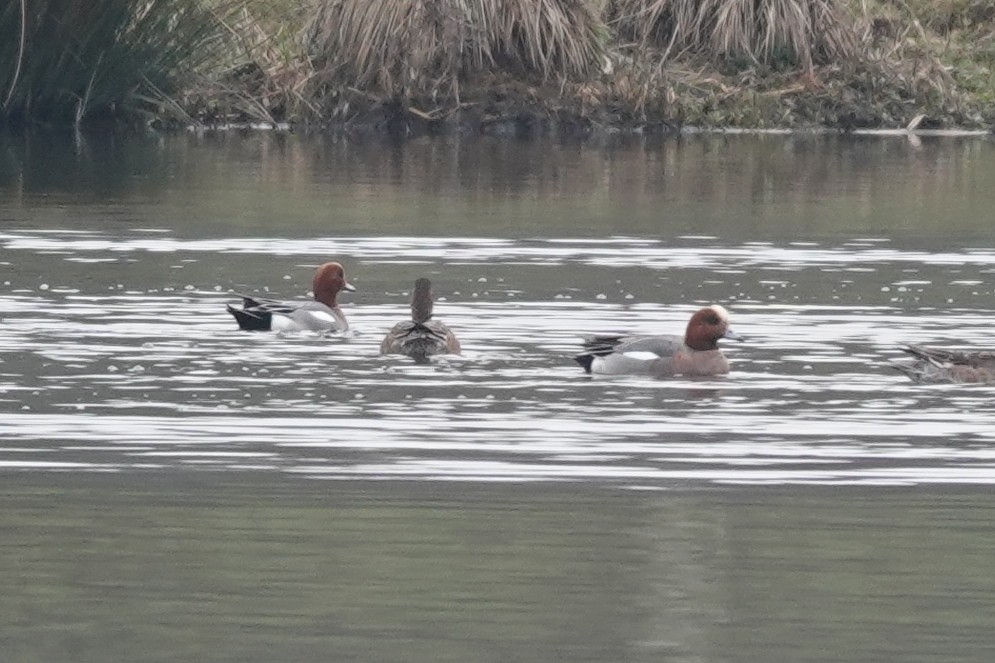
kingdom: Animalia
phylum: Chordata
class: Aves
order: Anseriformes
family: Anatidae
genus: Mareca
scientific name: Mareca penelope
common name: Eurasian wigeon
